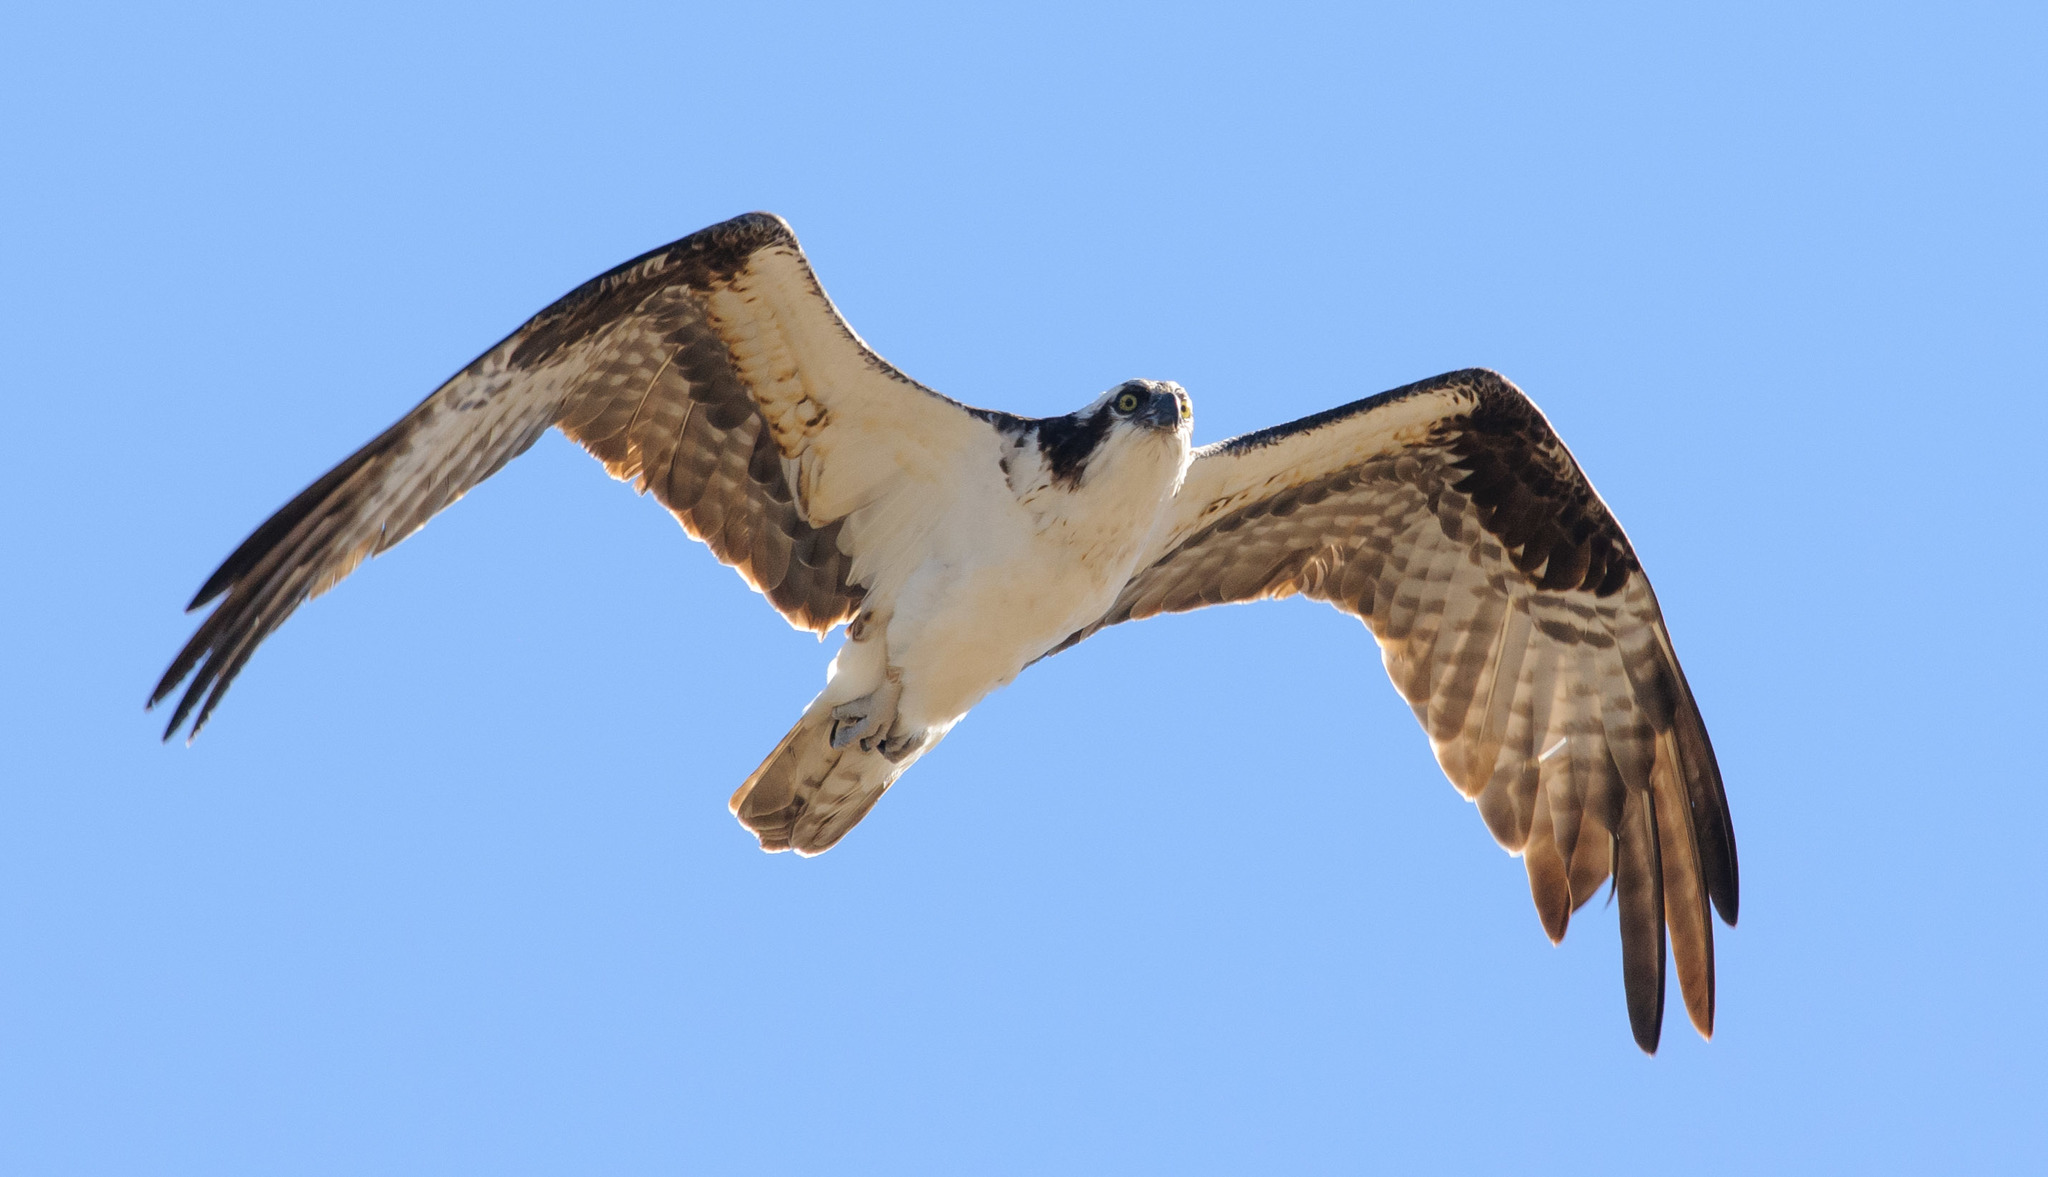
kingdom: Animalia
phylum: Chordata
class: Aves
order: Accipitriformes
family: Pandionidae
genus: Pandion
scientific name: Pandion haliaetus
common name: Osprey
